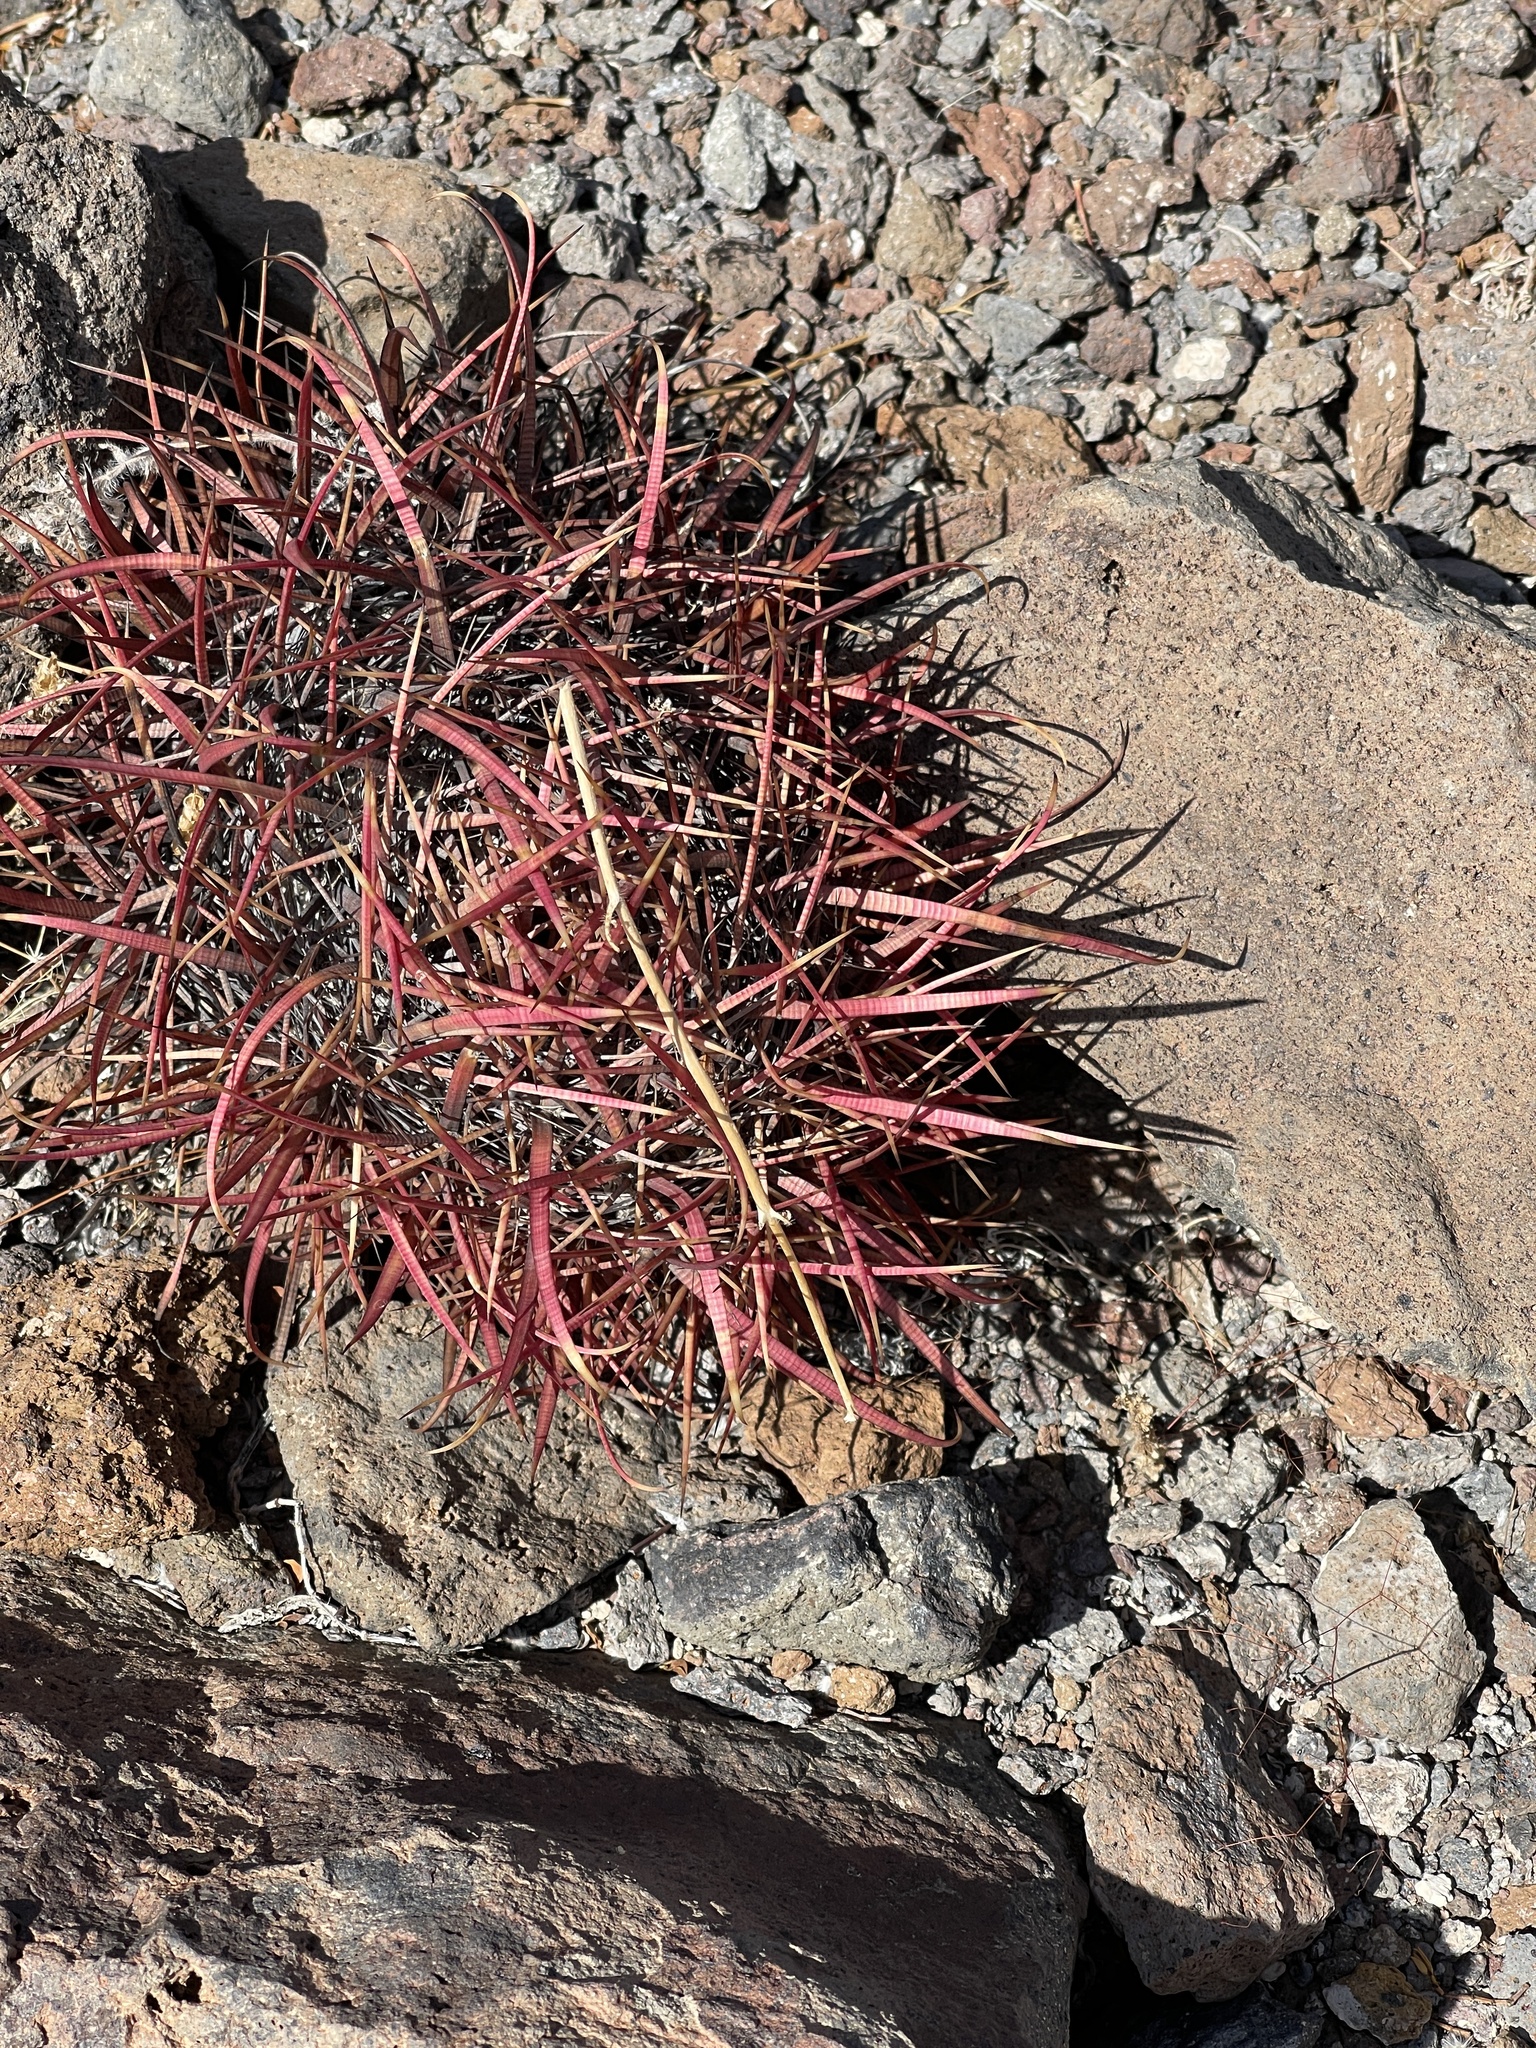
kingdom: Plantae
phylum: Tracheophyta
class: Magnoliopsida
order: Caryophyllales
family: Cactaceae
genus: Ferocactus
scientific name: Ferocactus cylindraceus
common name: California barrel cactus
